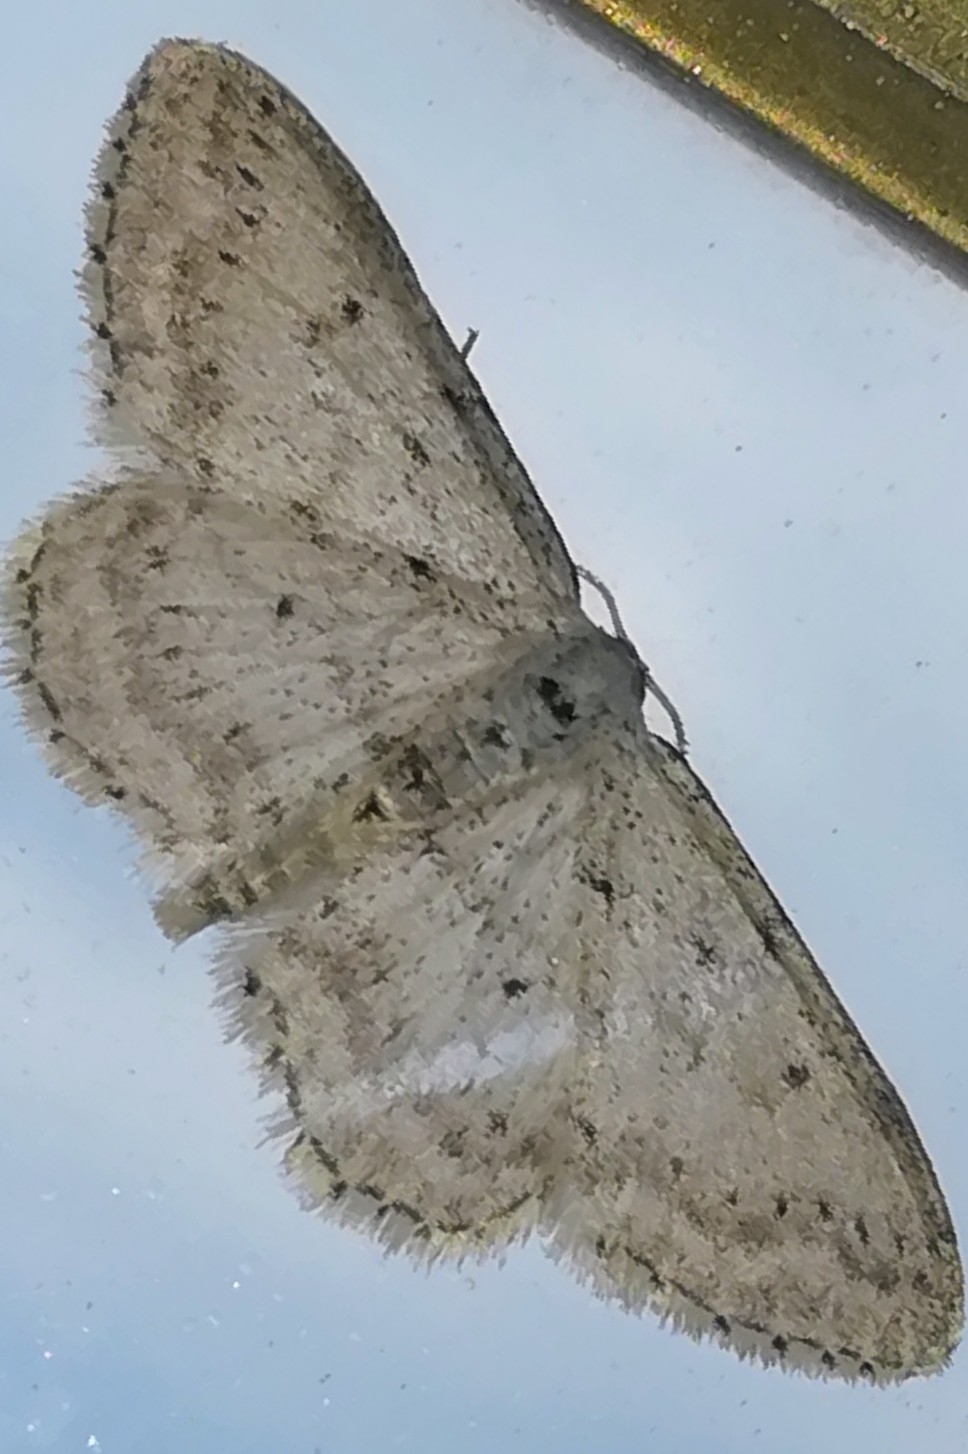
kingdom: Animalia
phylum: Arthropoda
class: Insecta
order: Lepidoptera
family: Geometridae
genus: Idaea
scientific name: Idaea seriata
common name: Small dusty wave
